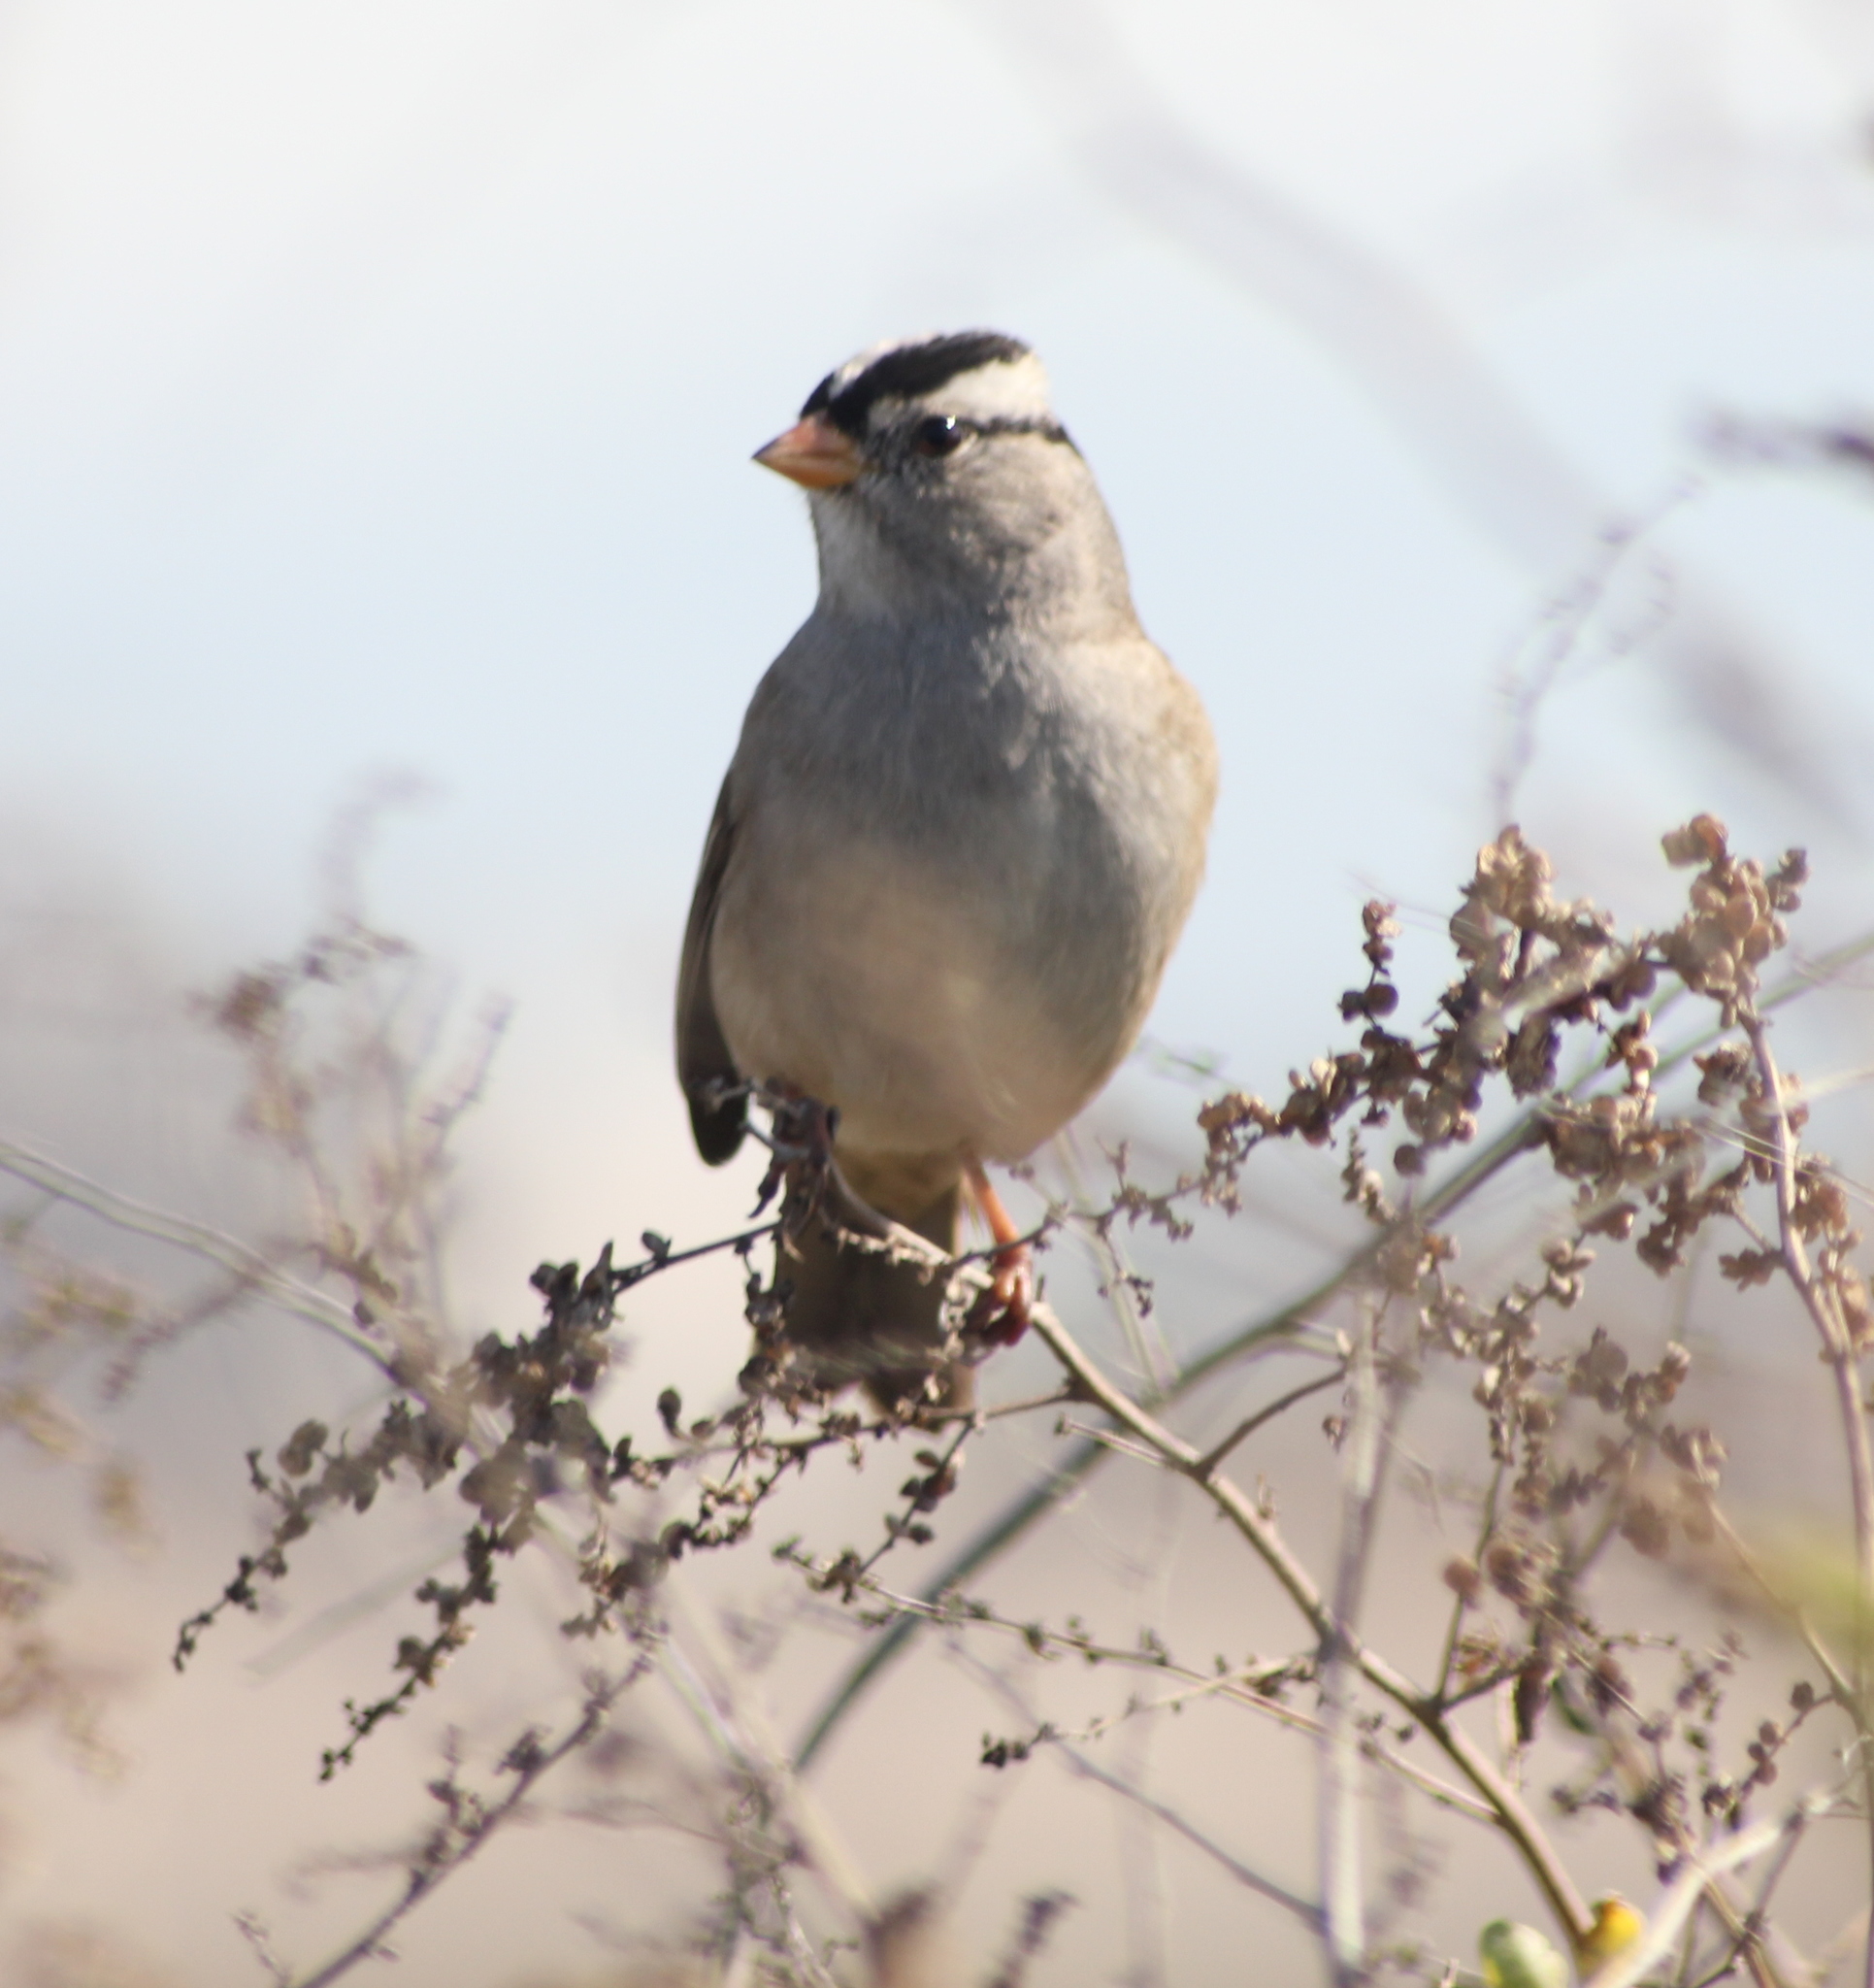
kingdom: Animalia
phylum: Chordata
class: Aves
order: Passeriformes
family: Passerellidae
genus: Zonotrichia
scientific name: Zonotrichia leucophrys
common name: White-crowned sparrow
